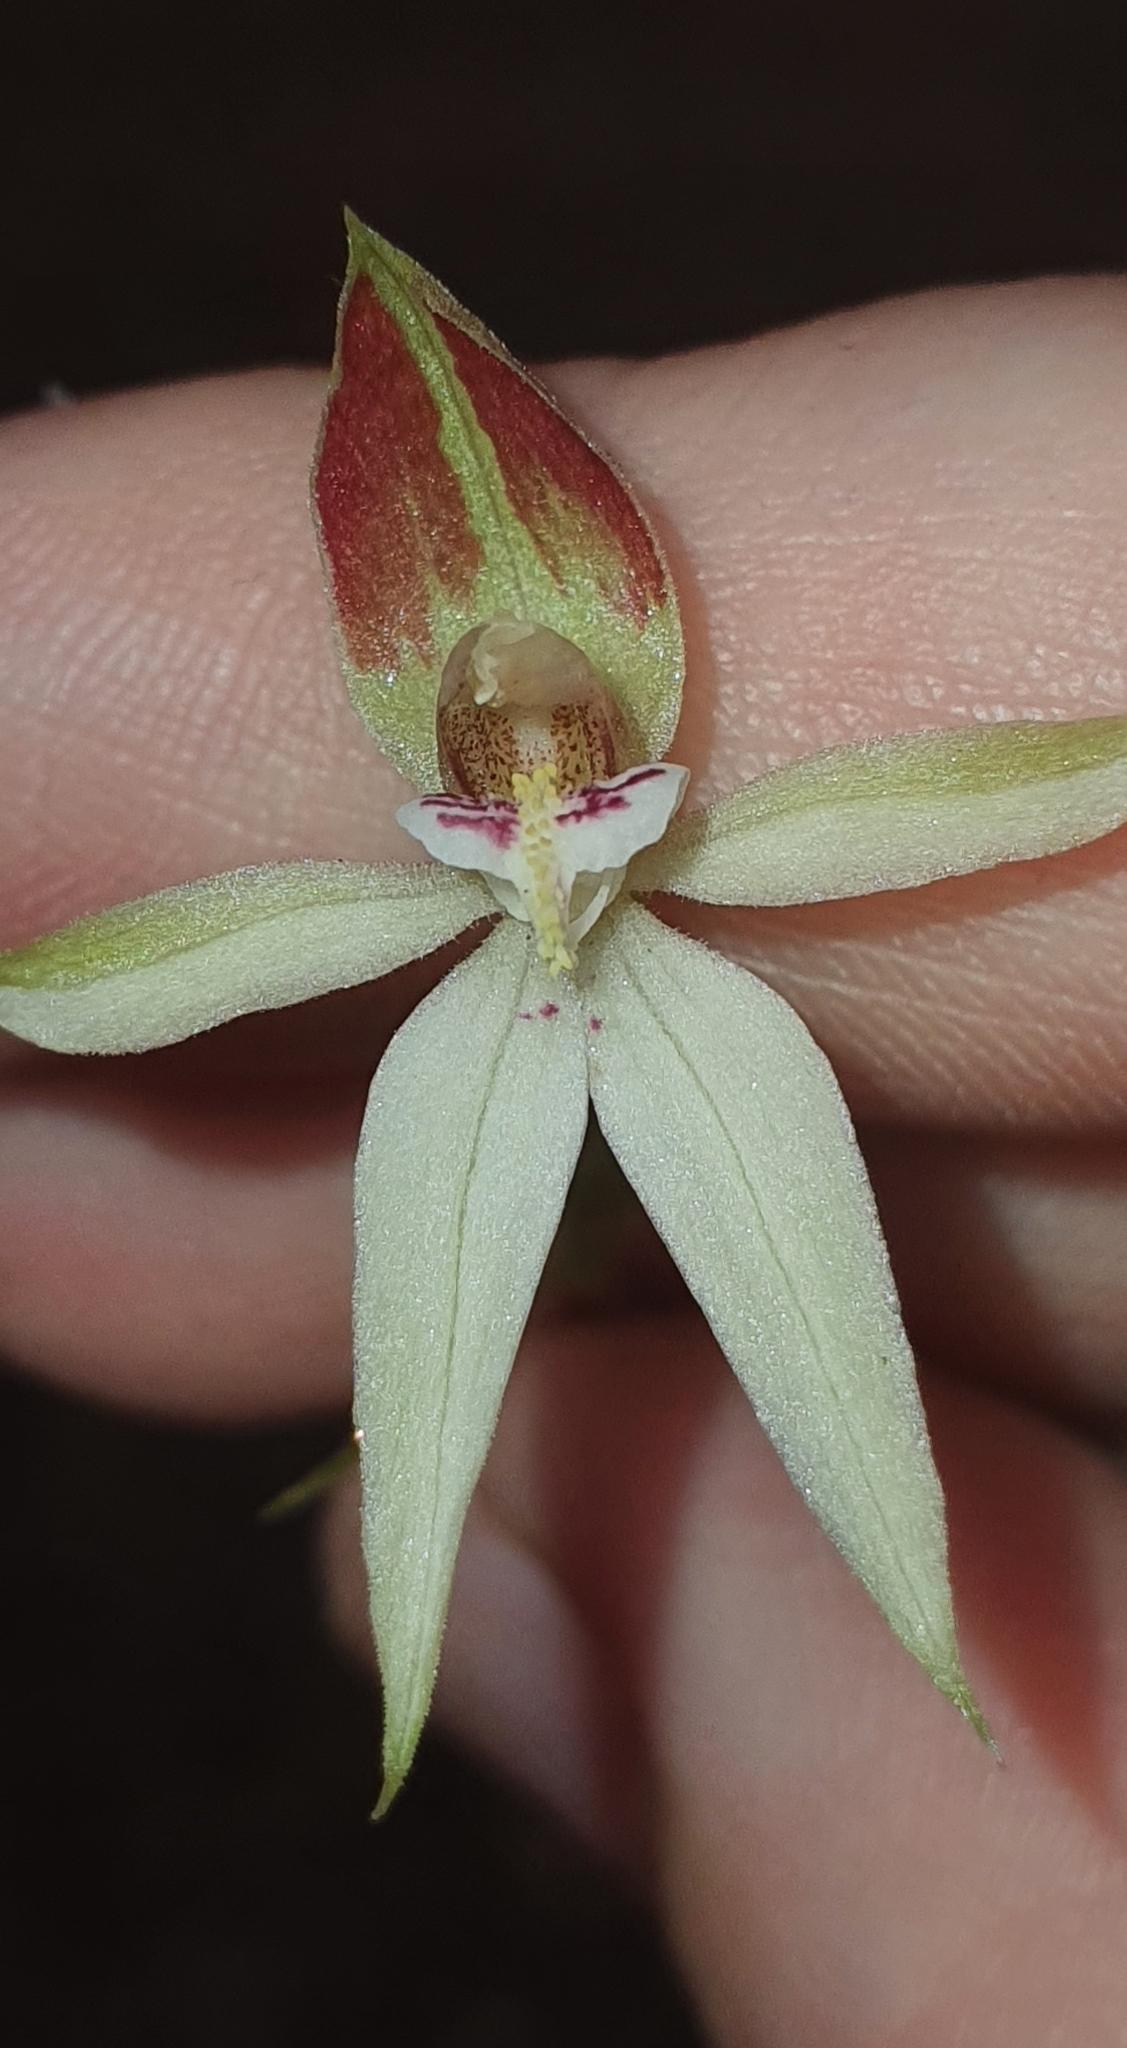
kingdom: Plantae
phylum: Tracheophyta
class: Liliopsida
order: Asparagales
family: Orchidaceae
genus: Adenochilus
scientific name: Adenochilus gracilis
